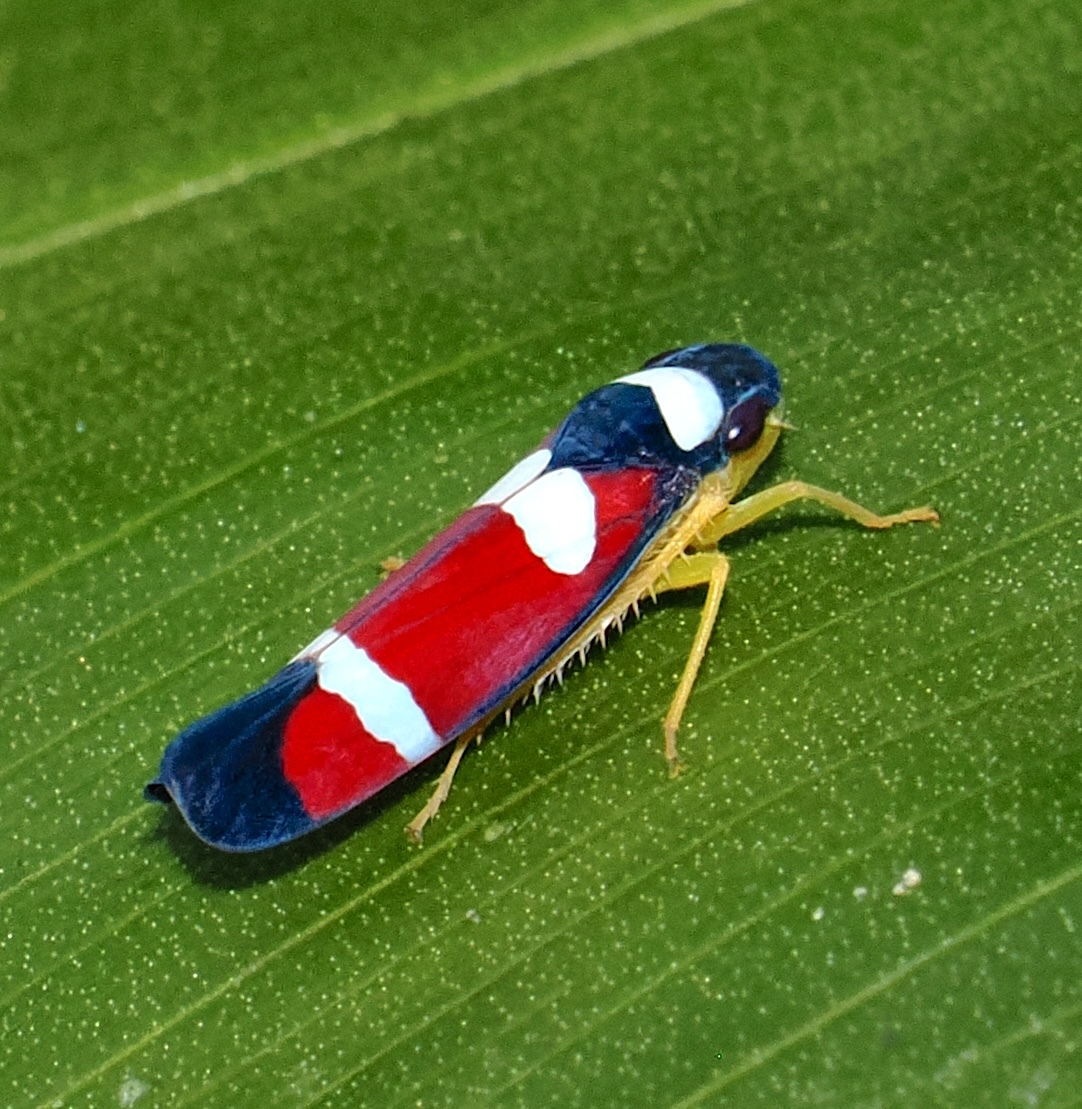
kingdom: Animalia
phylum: Arthropoda
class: Insecta
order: Hemiptera
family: Cicadellidae
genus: Erythrogonia
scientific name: Erythrogonia phoenicea
